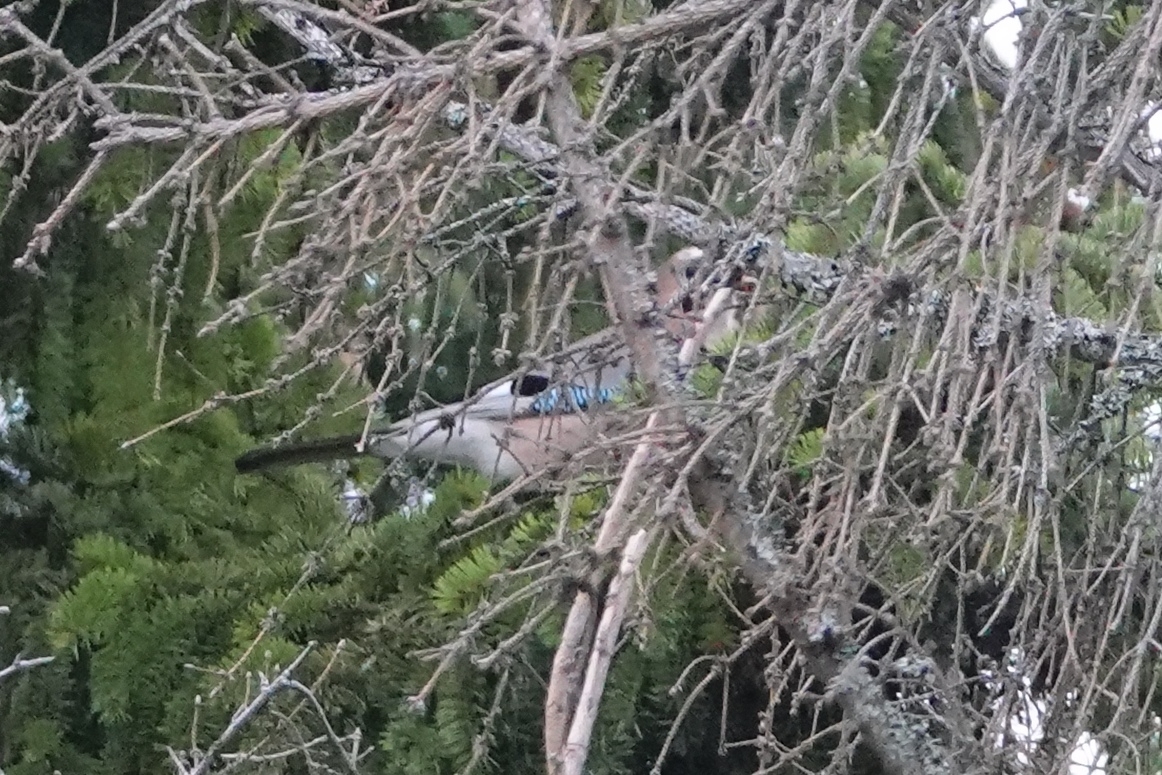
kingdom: Animalia
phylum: Chordata
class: Aves
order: Passeriformes
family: Corvidae
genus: Garrulus
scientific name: Garrulus glandarius
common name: Eurasian jay
